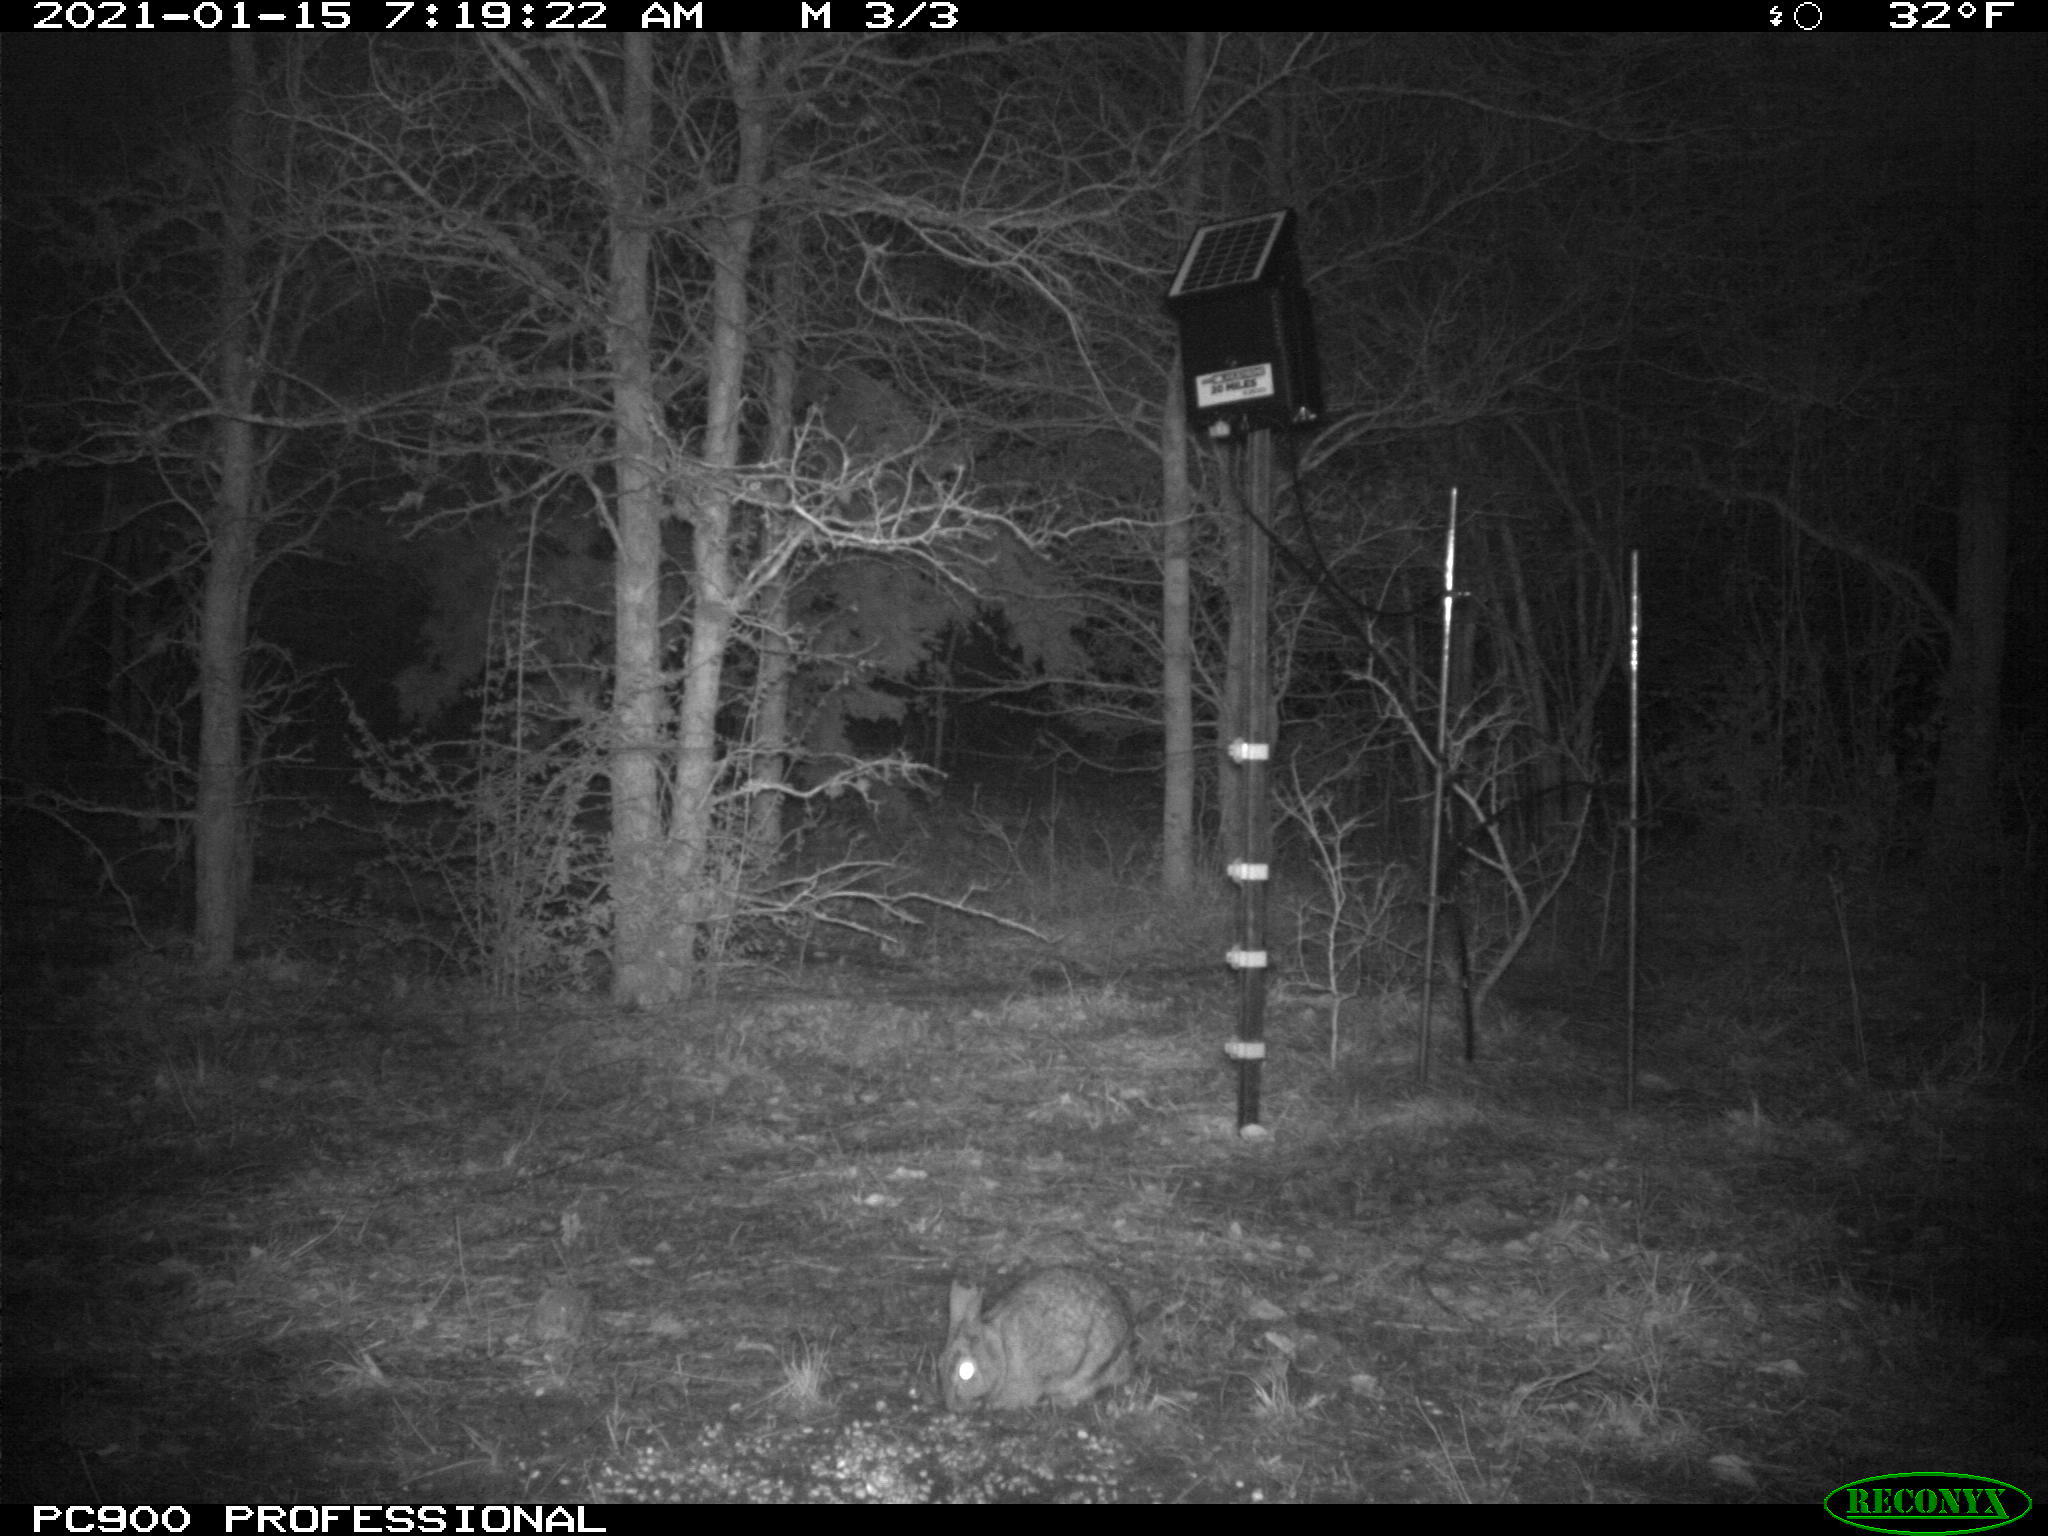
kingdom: Animalia
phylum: Chordata
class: Mammalia
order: Lagomorpha
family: Leporidae
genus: Sylvilagus
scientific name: Sylvilagus floridanus
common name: Eastern cottontail
